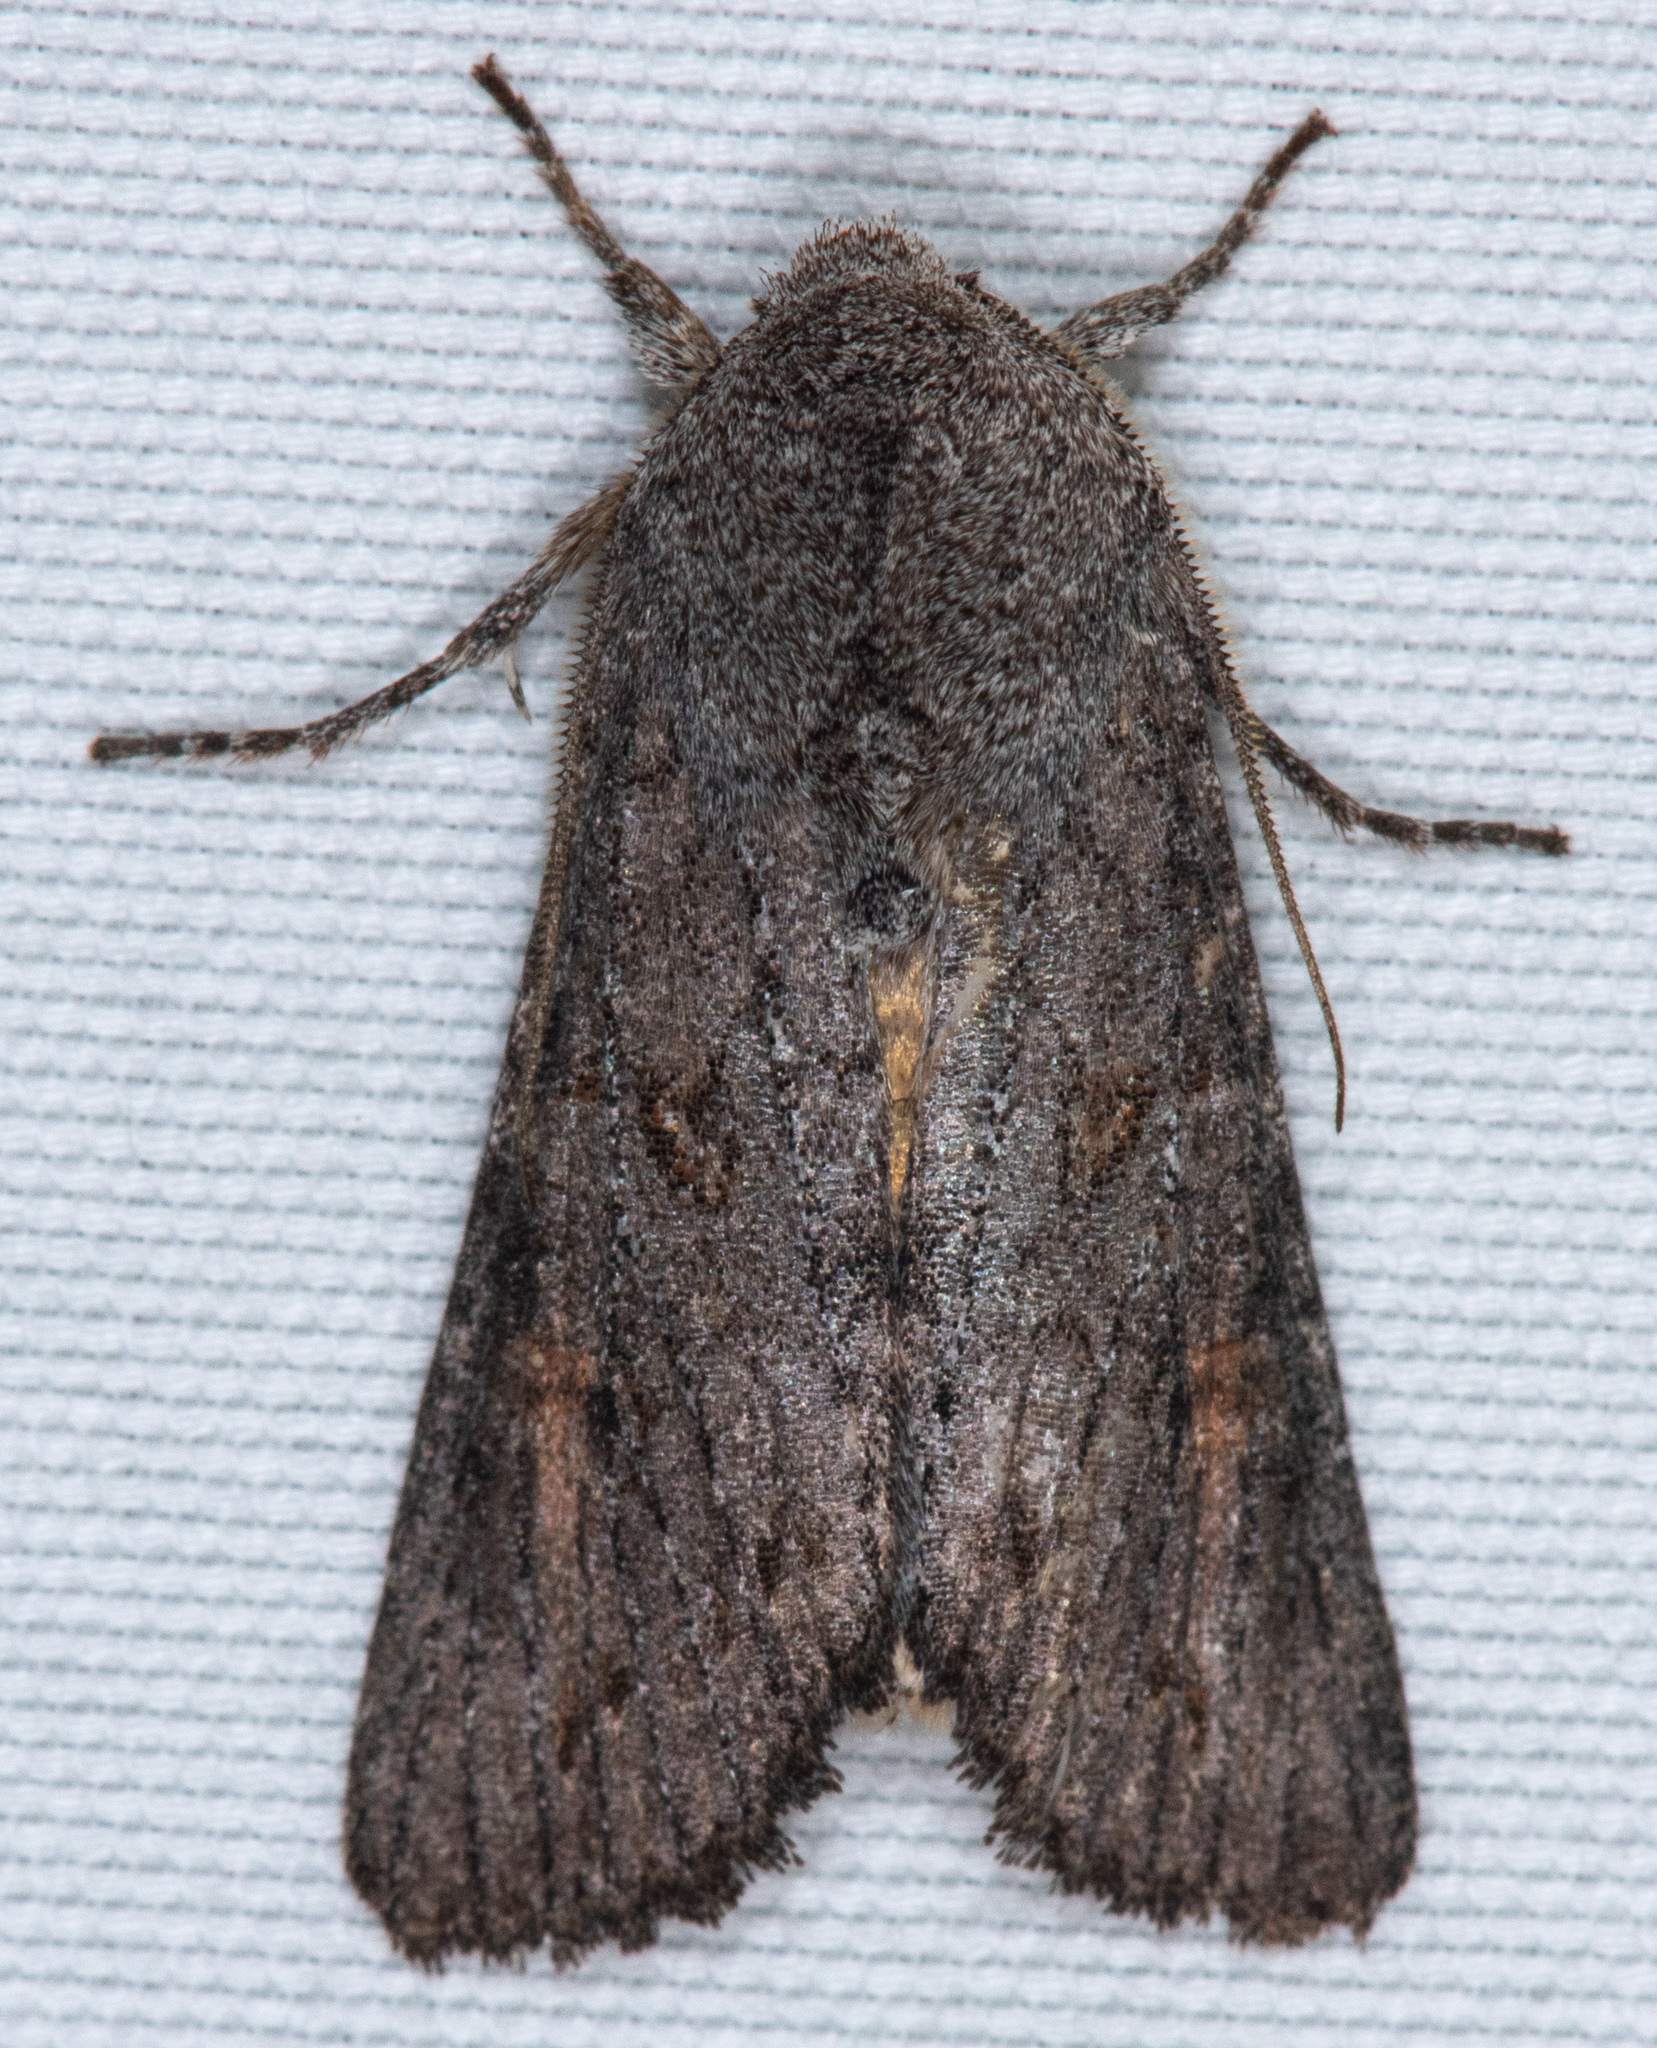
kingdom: Animalia
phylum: Arthropoda
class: Insecta
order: Lepidoptera
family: Noctuidae
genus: Egira
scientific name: Egira curialis
